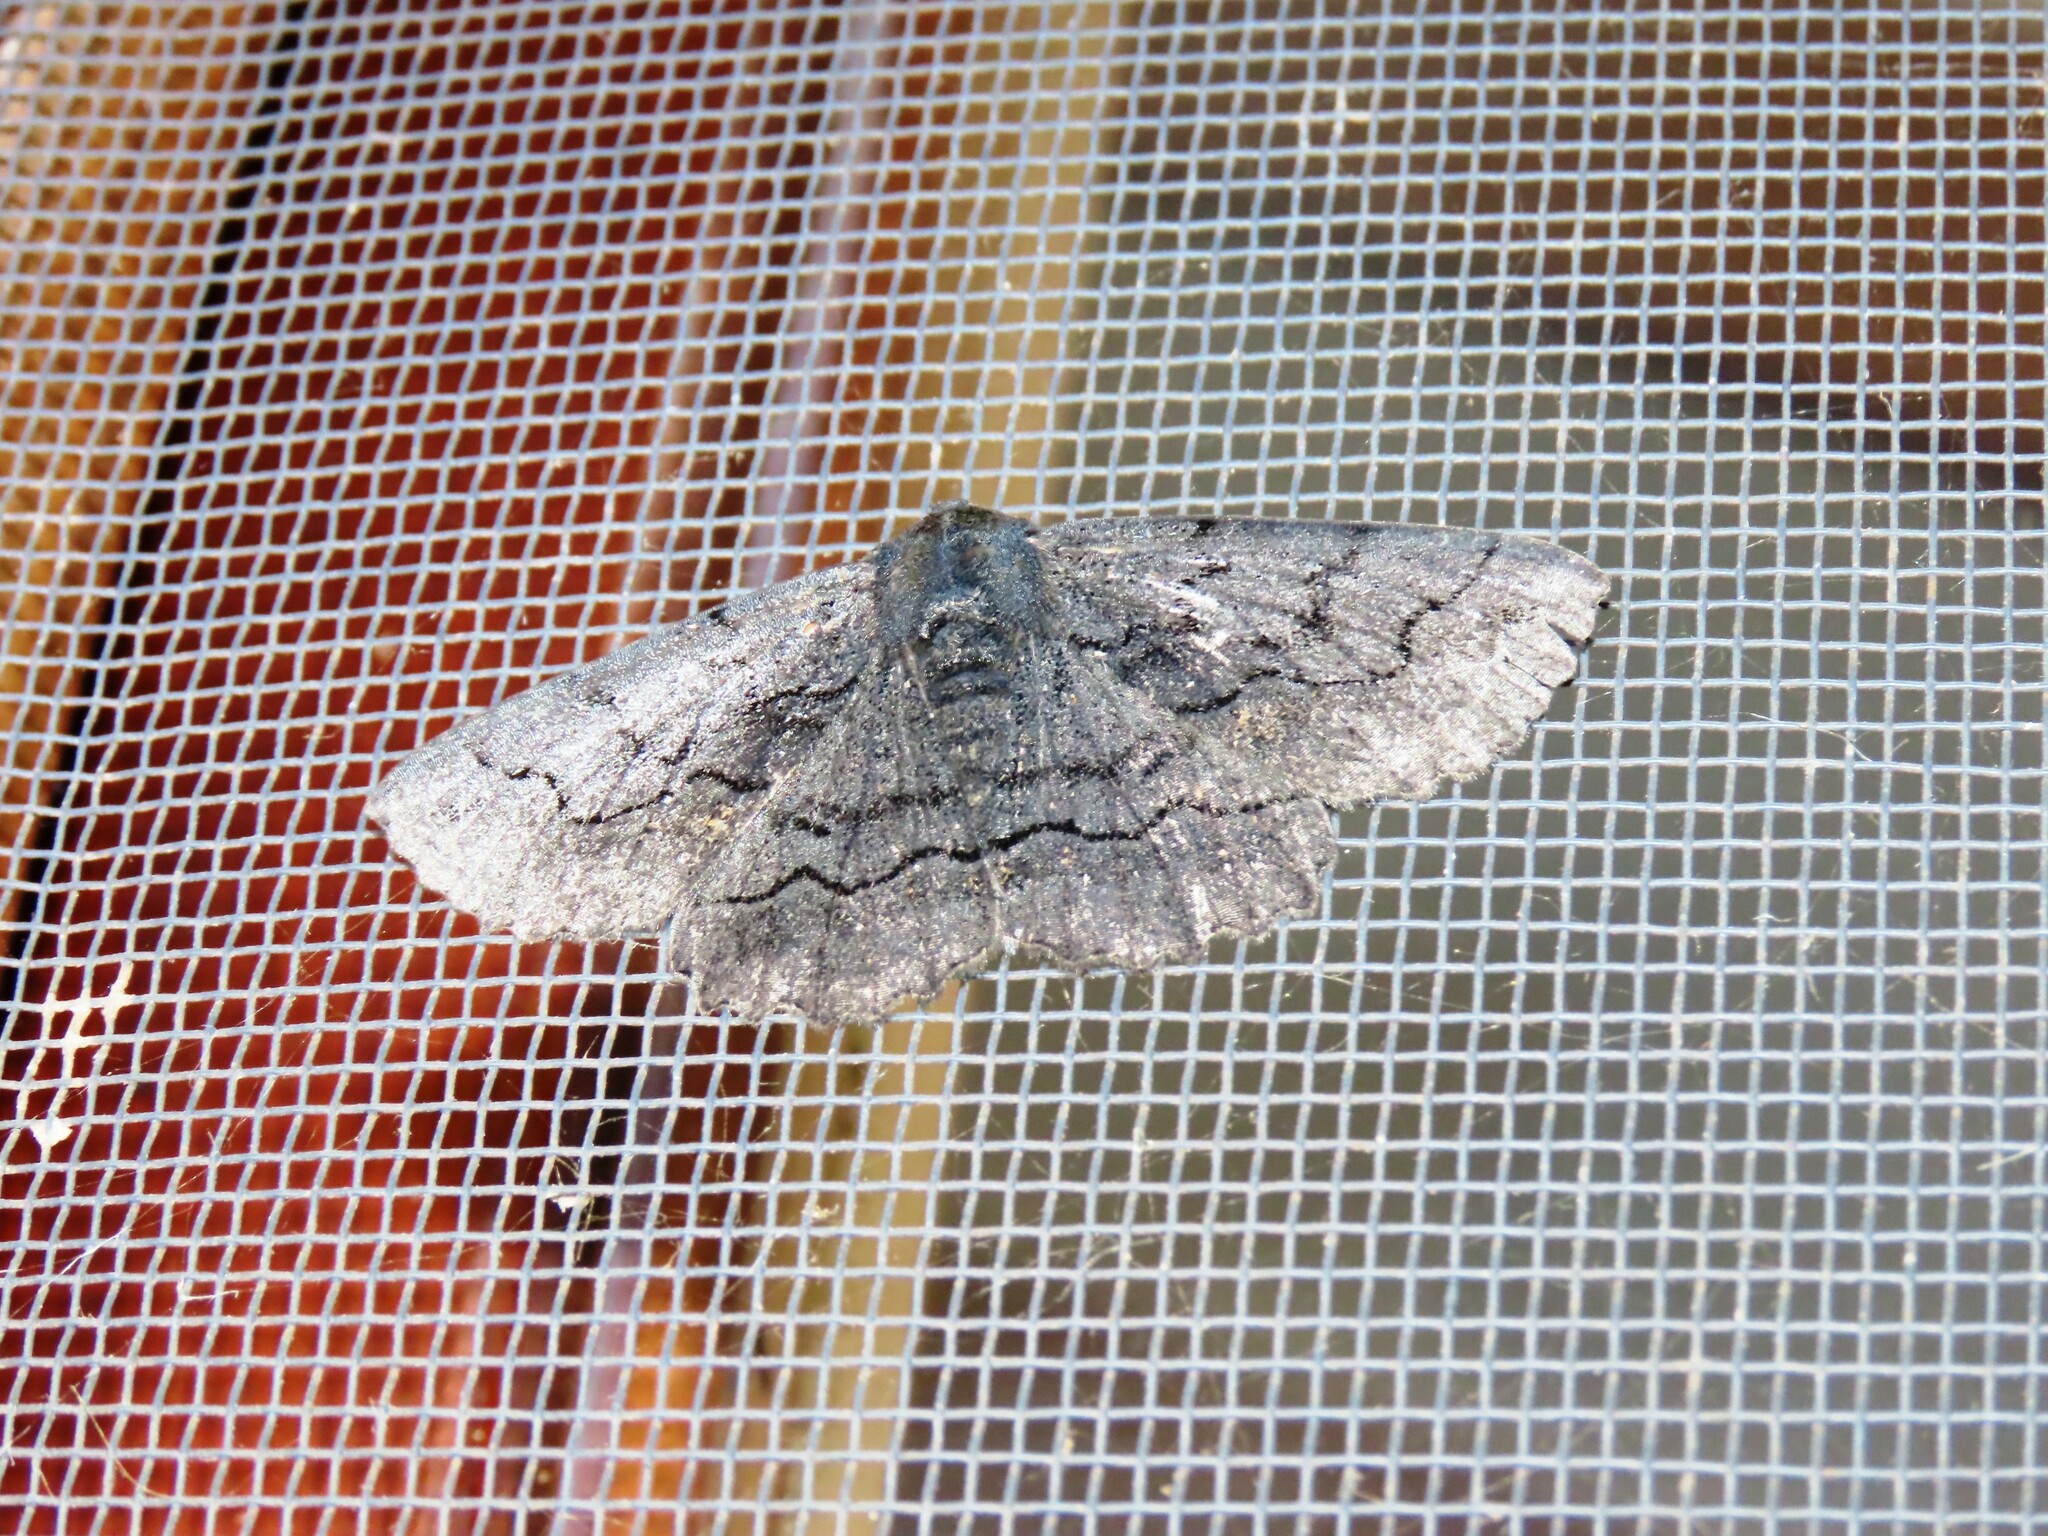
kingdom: Animalia
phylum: Arthropoda
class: Insecta
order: Lepidoptera
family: Geometridae
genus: Melanodes
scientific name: Melanodes anthracitaria
